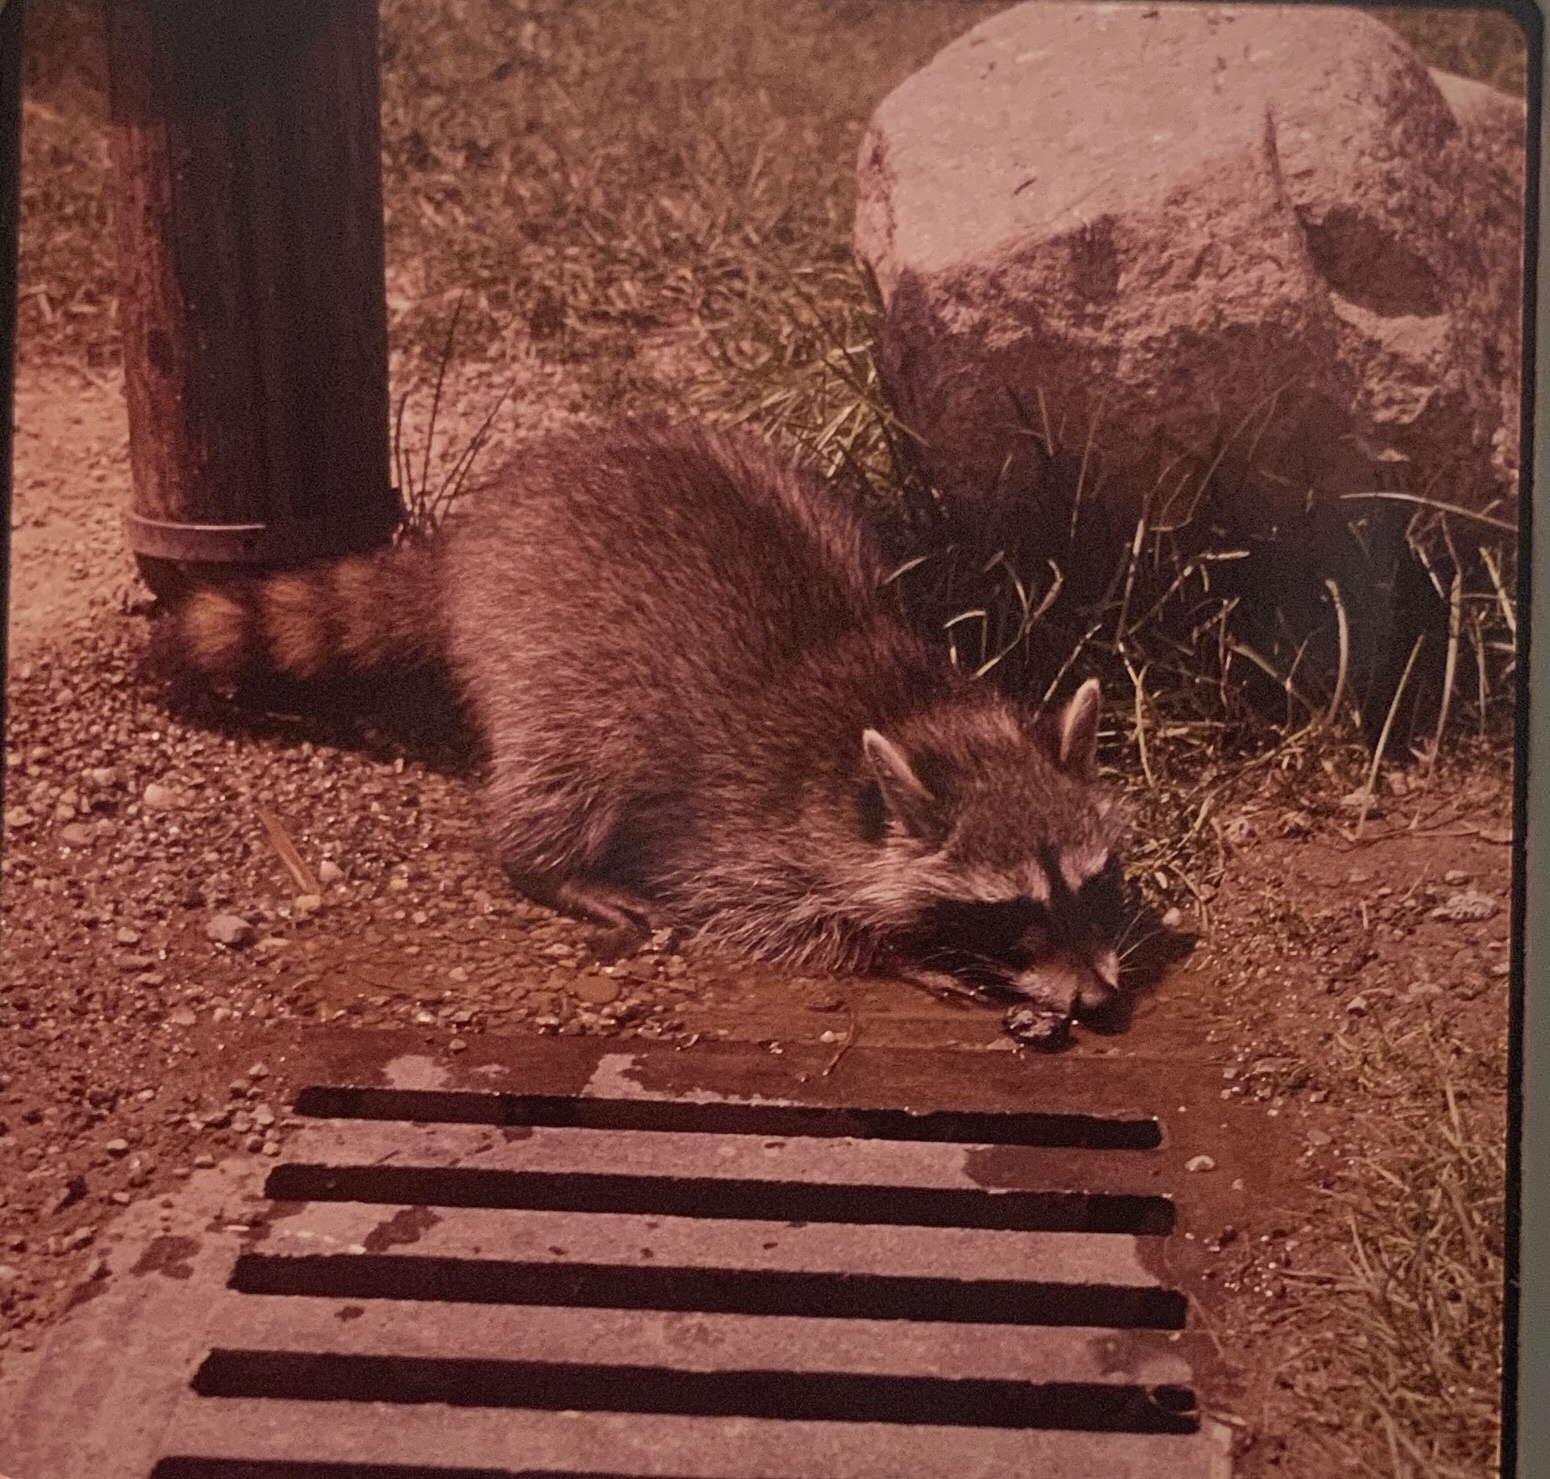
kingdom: Animalia
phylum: Chordata
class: Mammalia
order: Carnivora
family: Procyonidae
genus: Procyon
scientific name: Procyon lotor
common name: Raccoon
